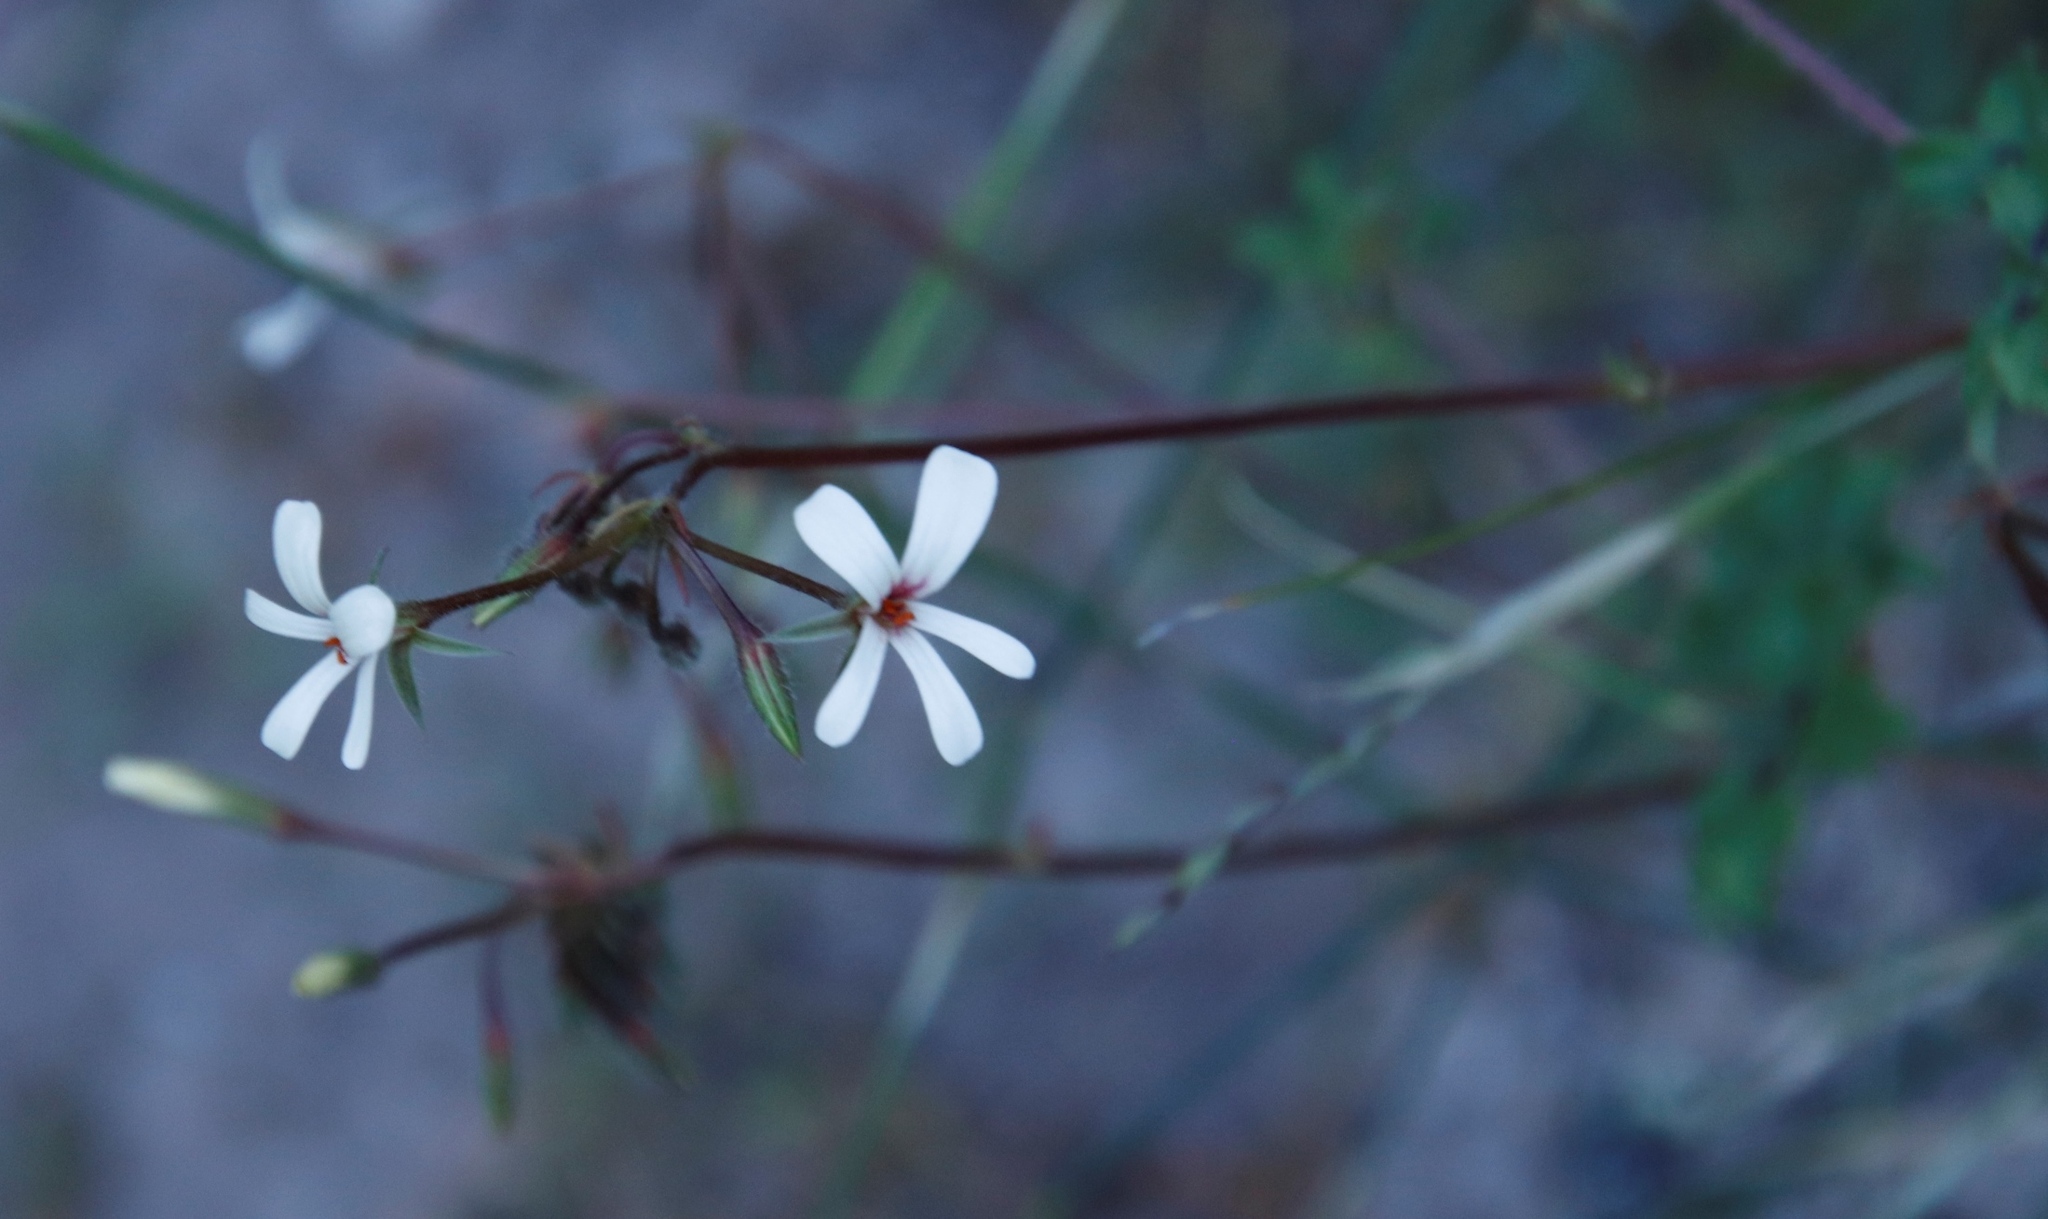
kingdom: Plantae
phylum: Tracheophyta
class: Magnoliopsida
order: Geraniales
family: Geraniaceae
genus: Pelargonium
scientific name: Pelargonium elongatum
